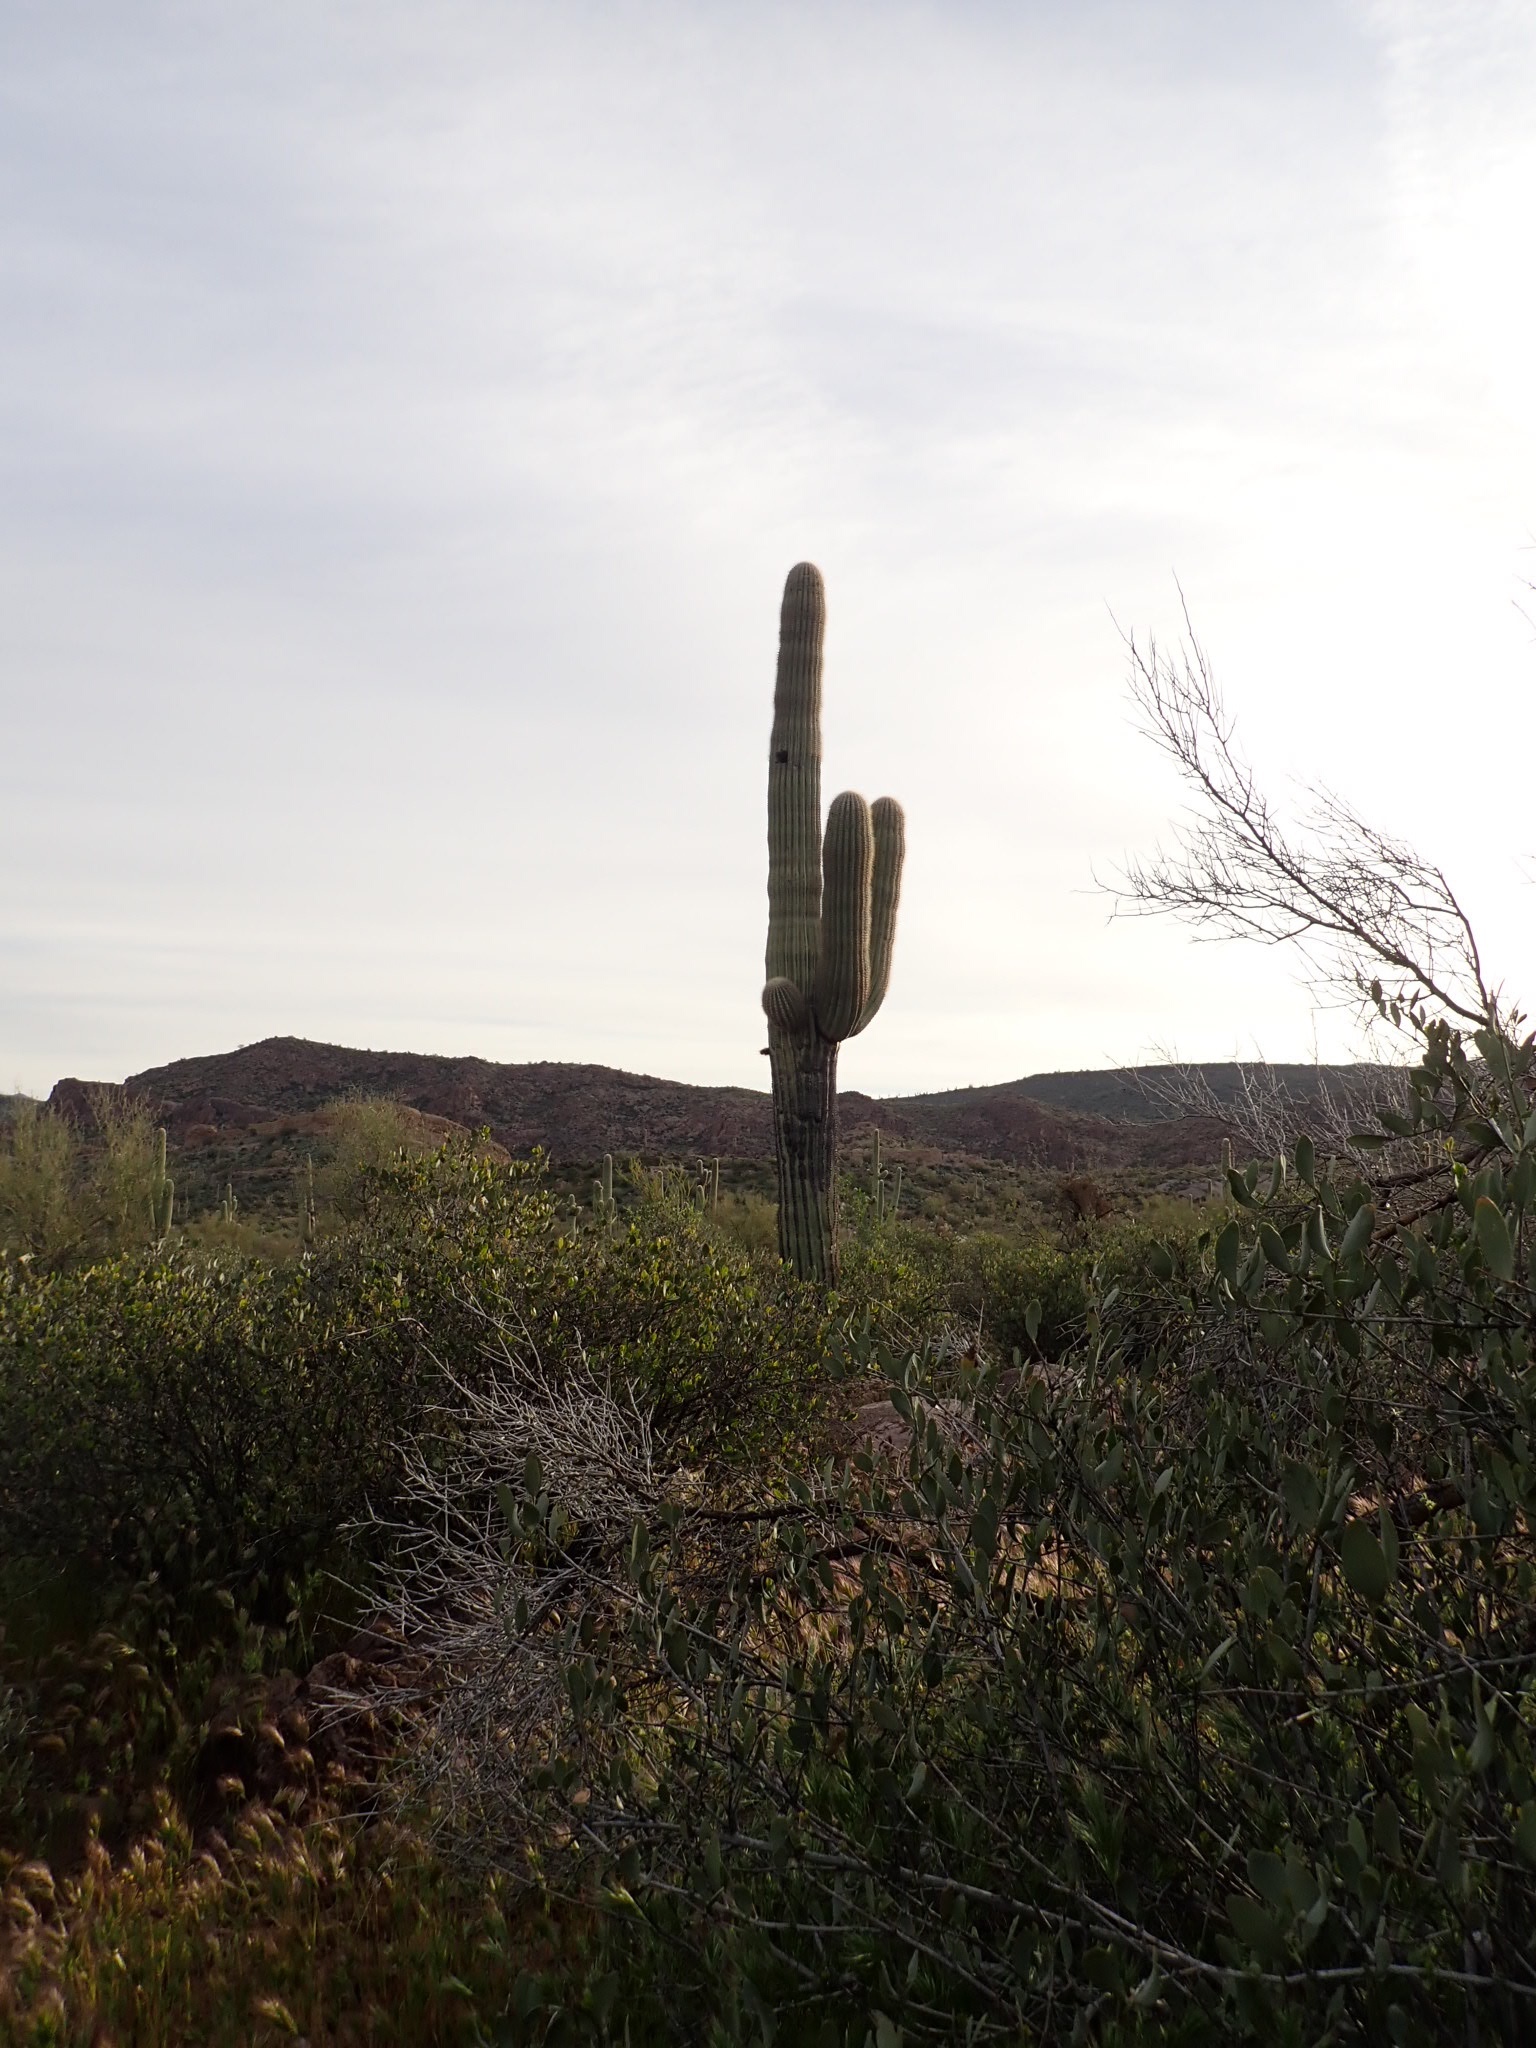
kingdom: Plantae
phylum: Tracheophyta
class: Magnoliopsida
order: Caryophyllales
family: Cactaceae
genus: Carnegiea
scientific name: Carnegiea gigantea
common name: Saguaro
